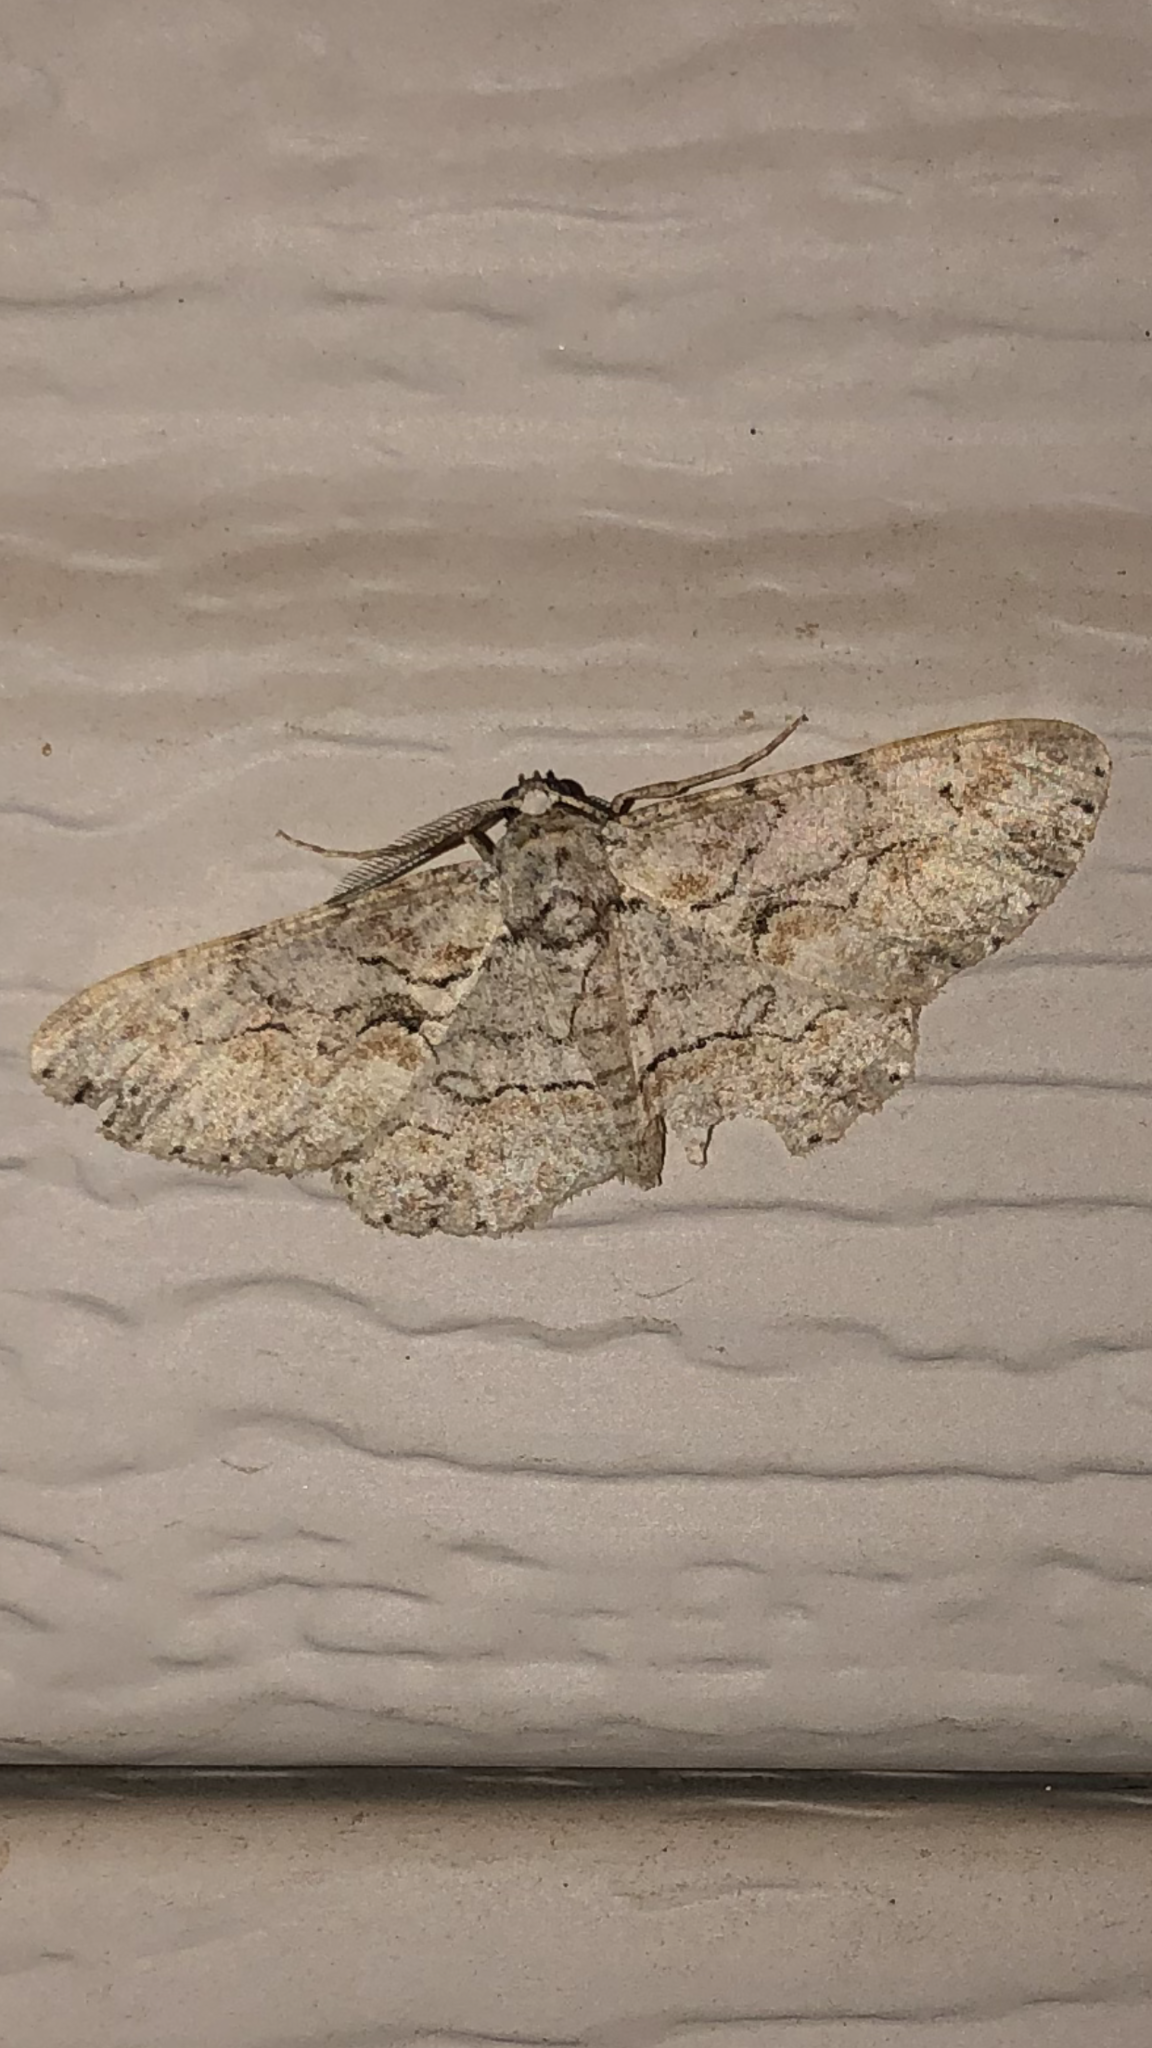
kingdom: Animalia
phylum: Arthropoda
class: Insecta
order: Lepidoptera
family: Geometridae
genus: Iridopsis
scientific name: Iridopsis defectaria
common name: Brown-shaded gray
